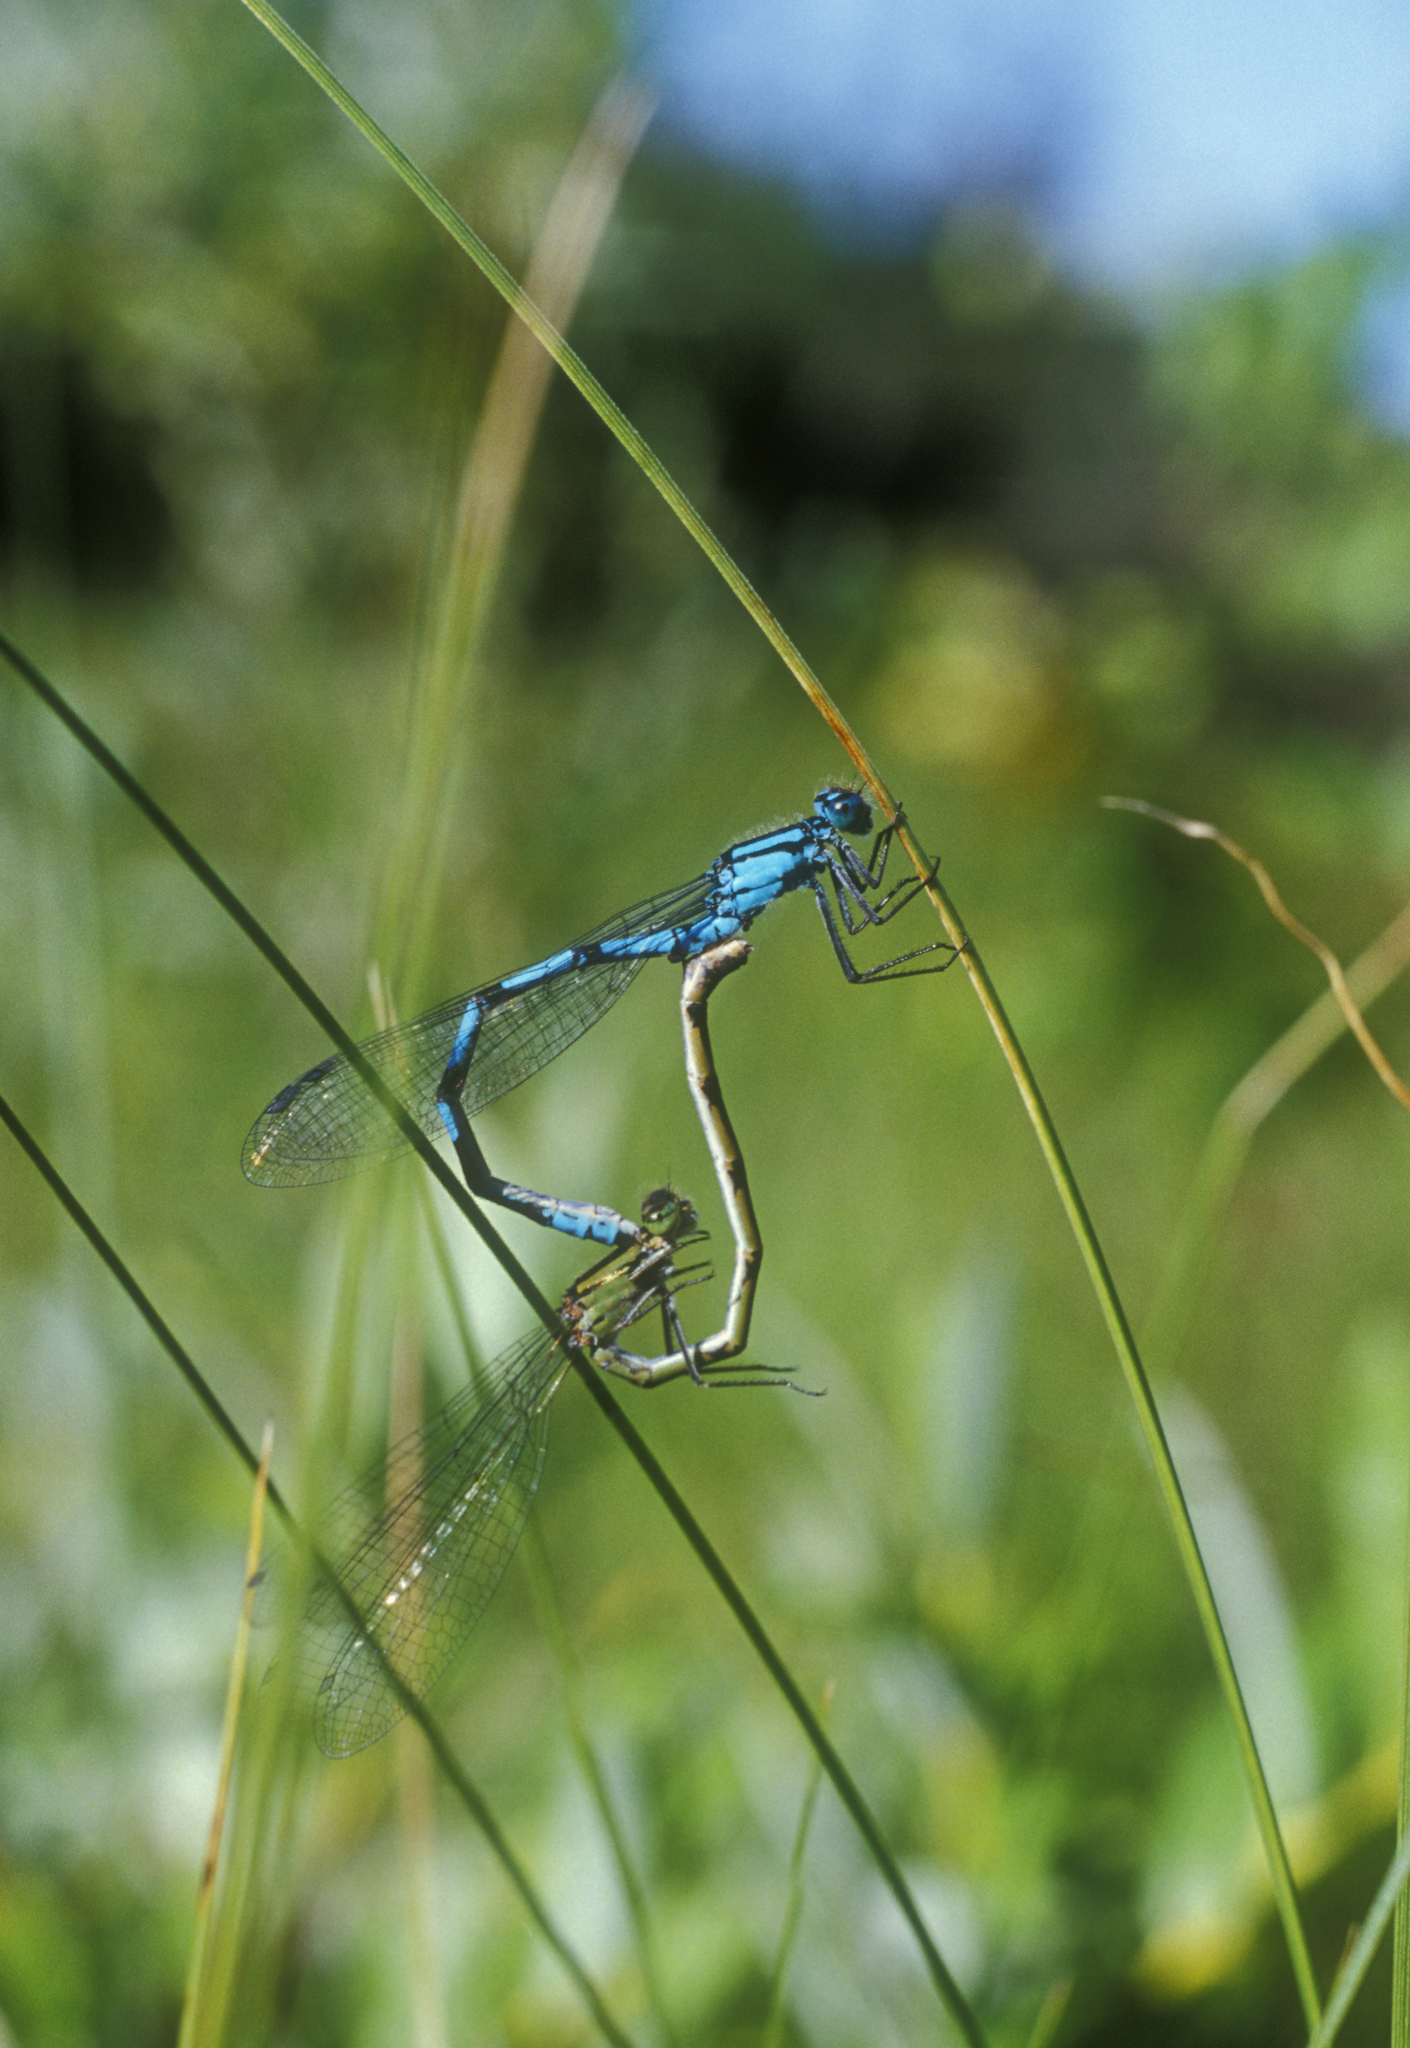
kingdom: Animalia
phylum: Arthropoda
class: Insecta
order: Odonata
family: Coenagrionidae
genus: Enallagma
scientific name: Enallagma cyathigerum
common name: Common blue damselfly
